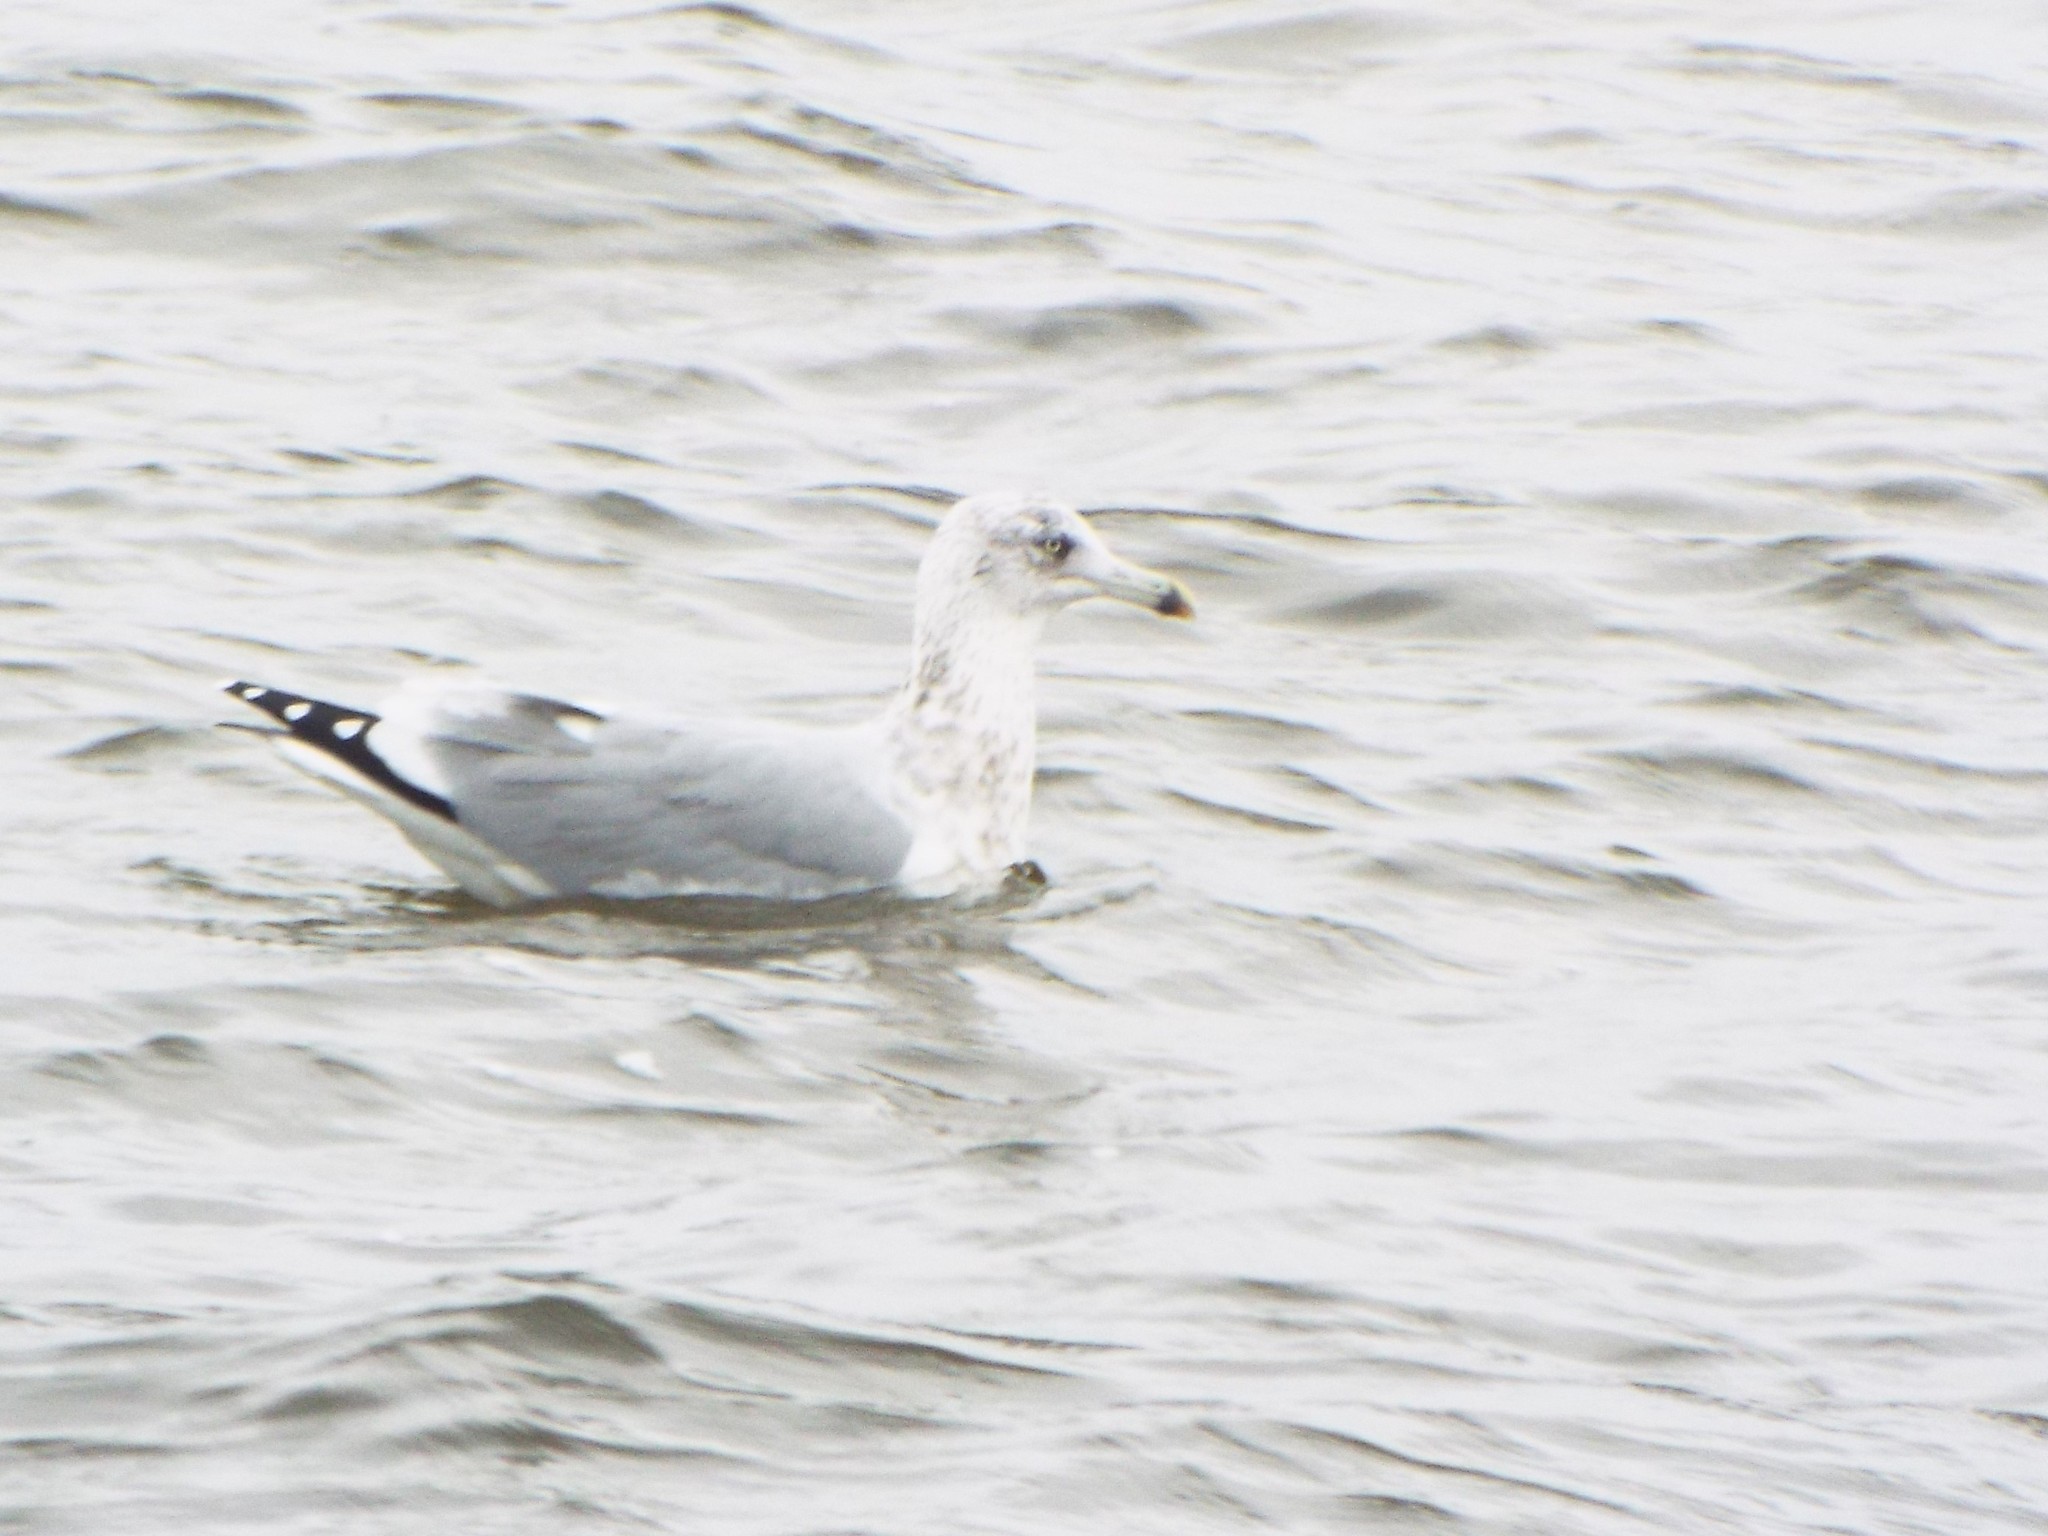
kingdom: Animalia
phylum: Chordata
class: Aves
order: Charadriiformes
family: Laridae
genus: Larus
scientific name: Larus argentatus
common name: Herring gull
